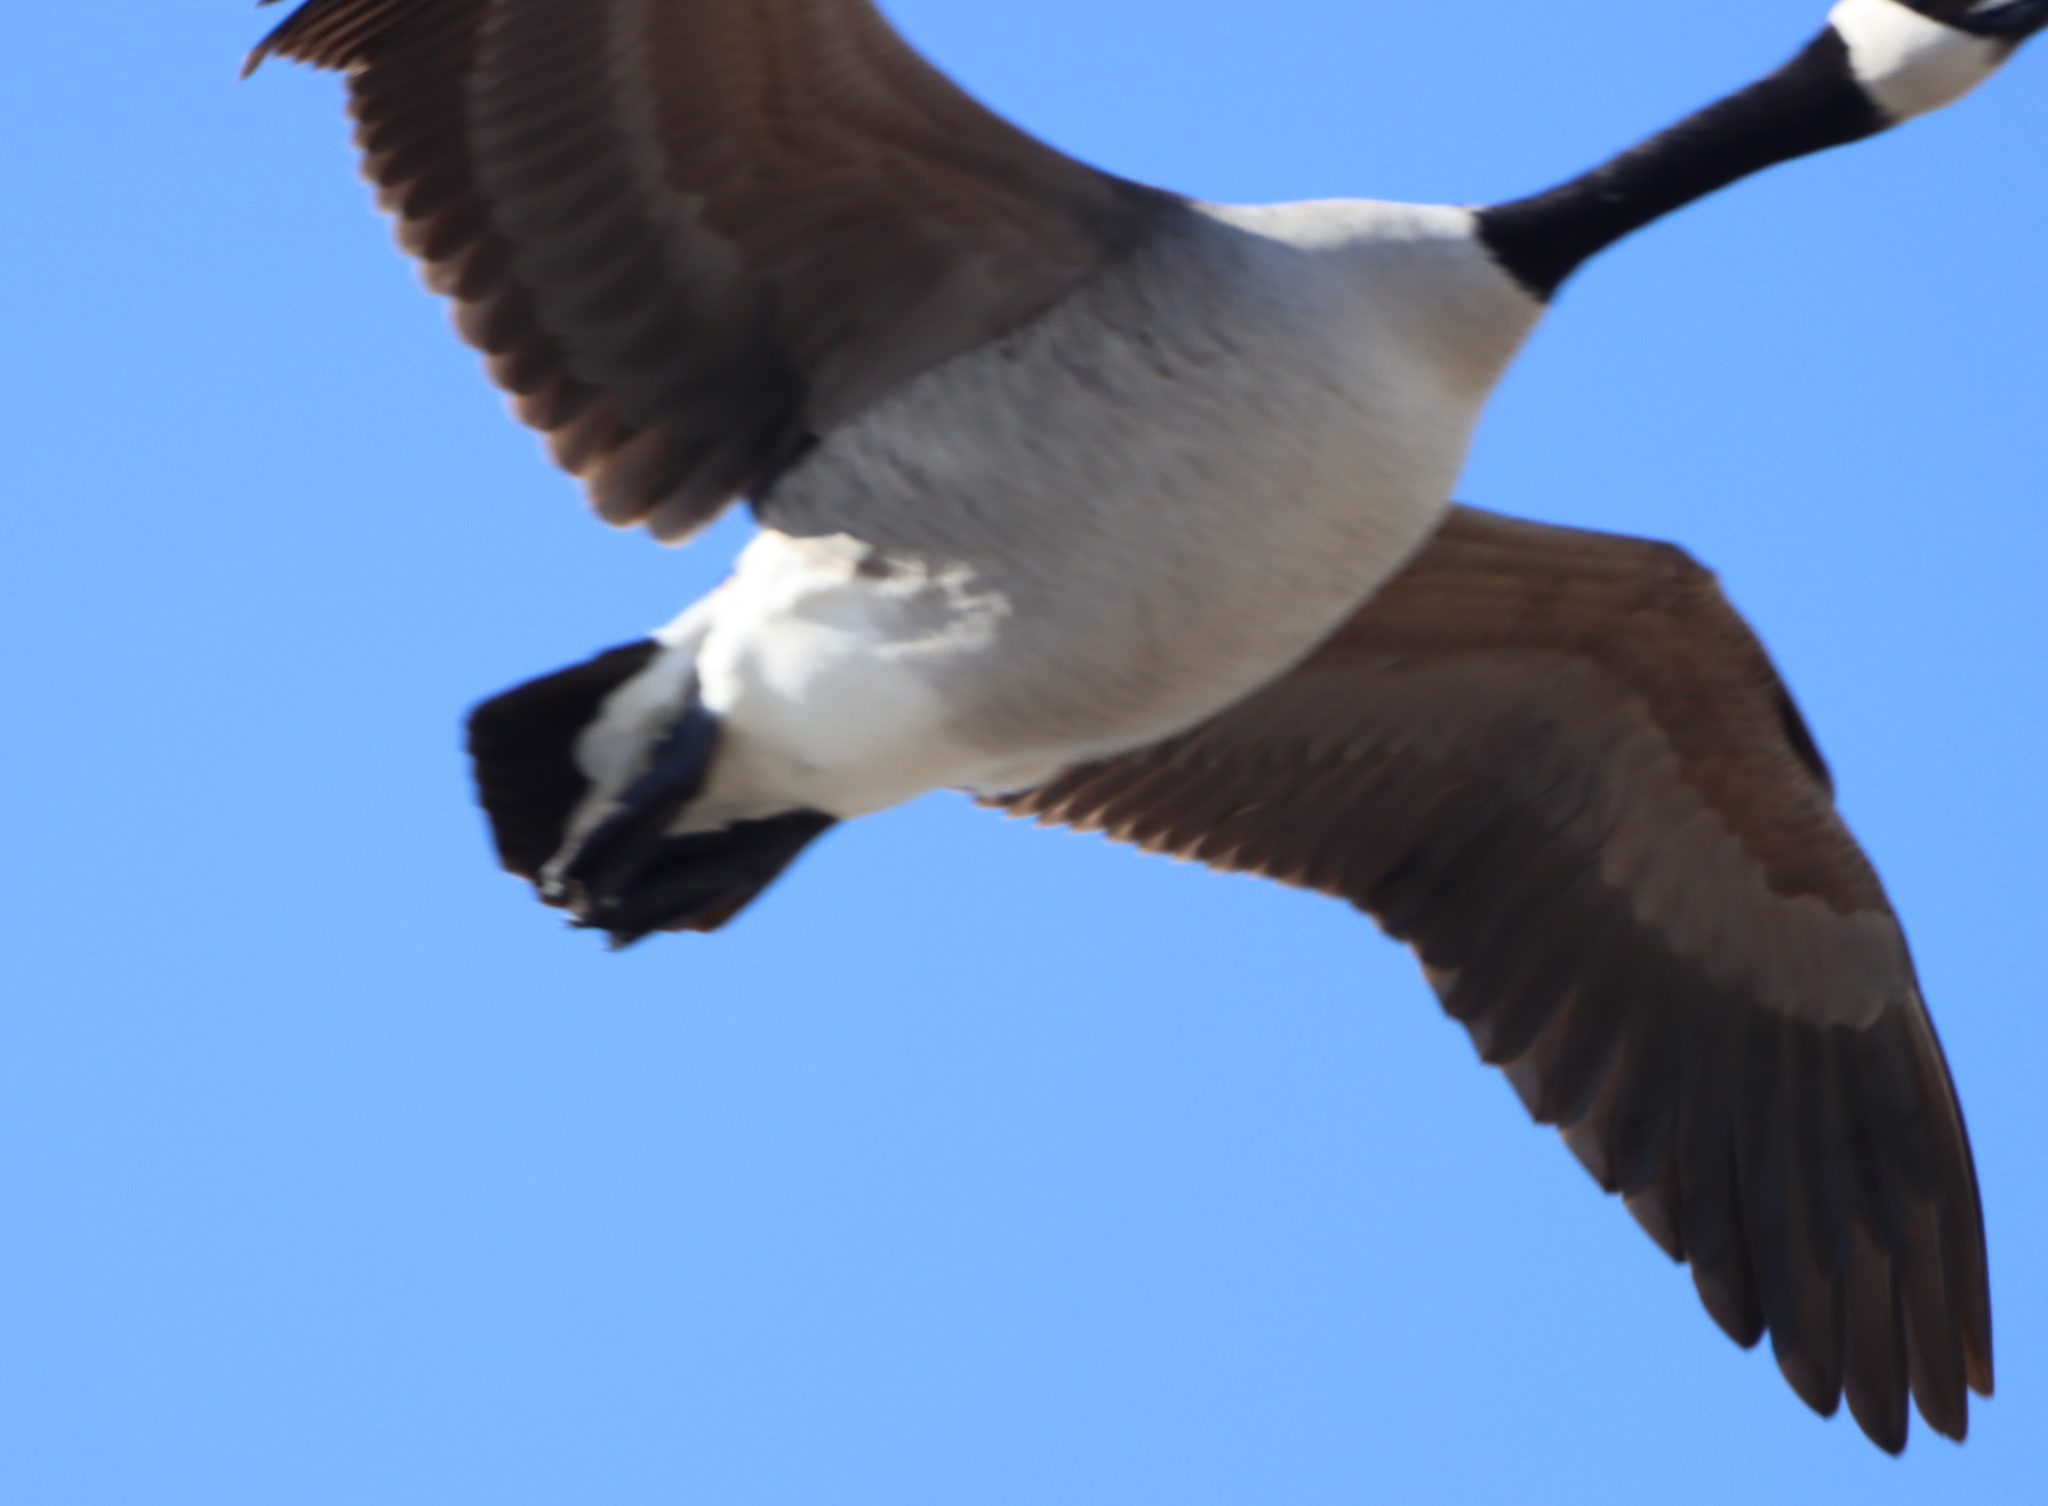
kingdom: Animalia
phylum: Chordata
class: Aves
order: Anseriformes
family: Anatidae
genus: Branta
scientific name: Branta canadensis
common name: Canada goose
